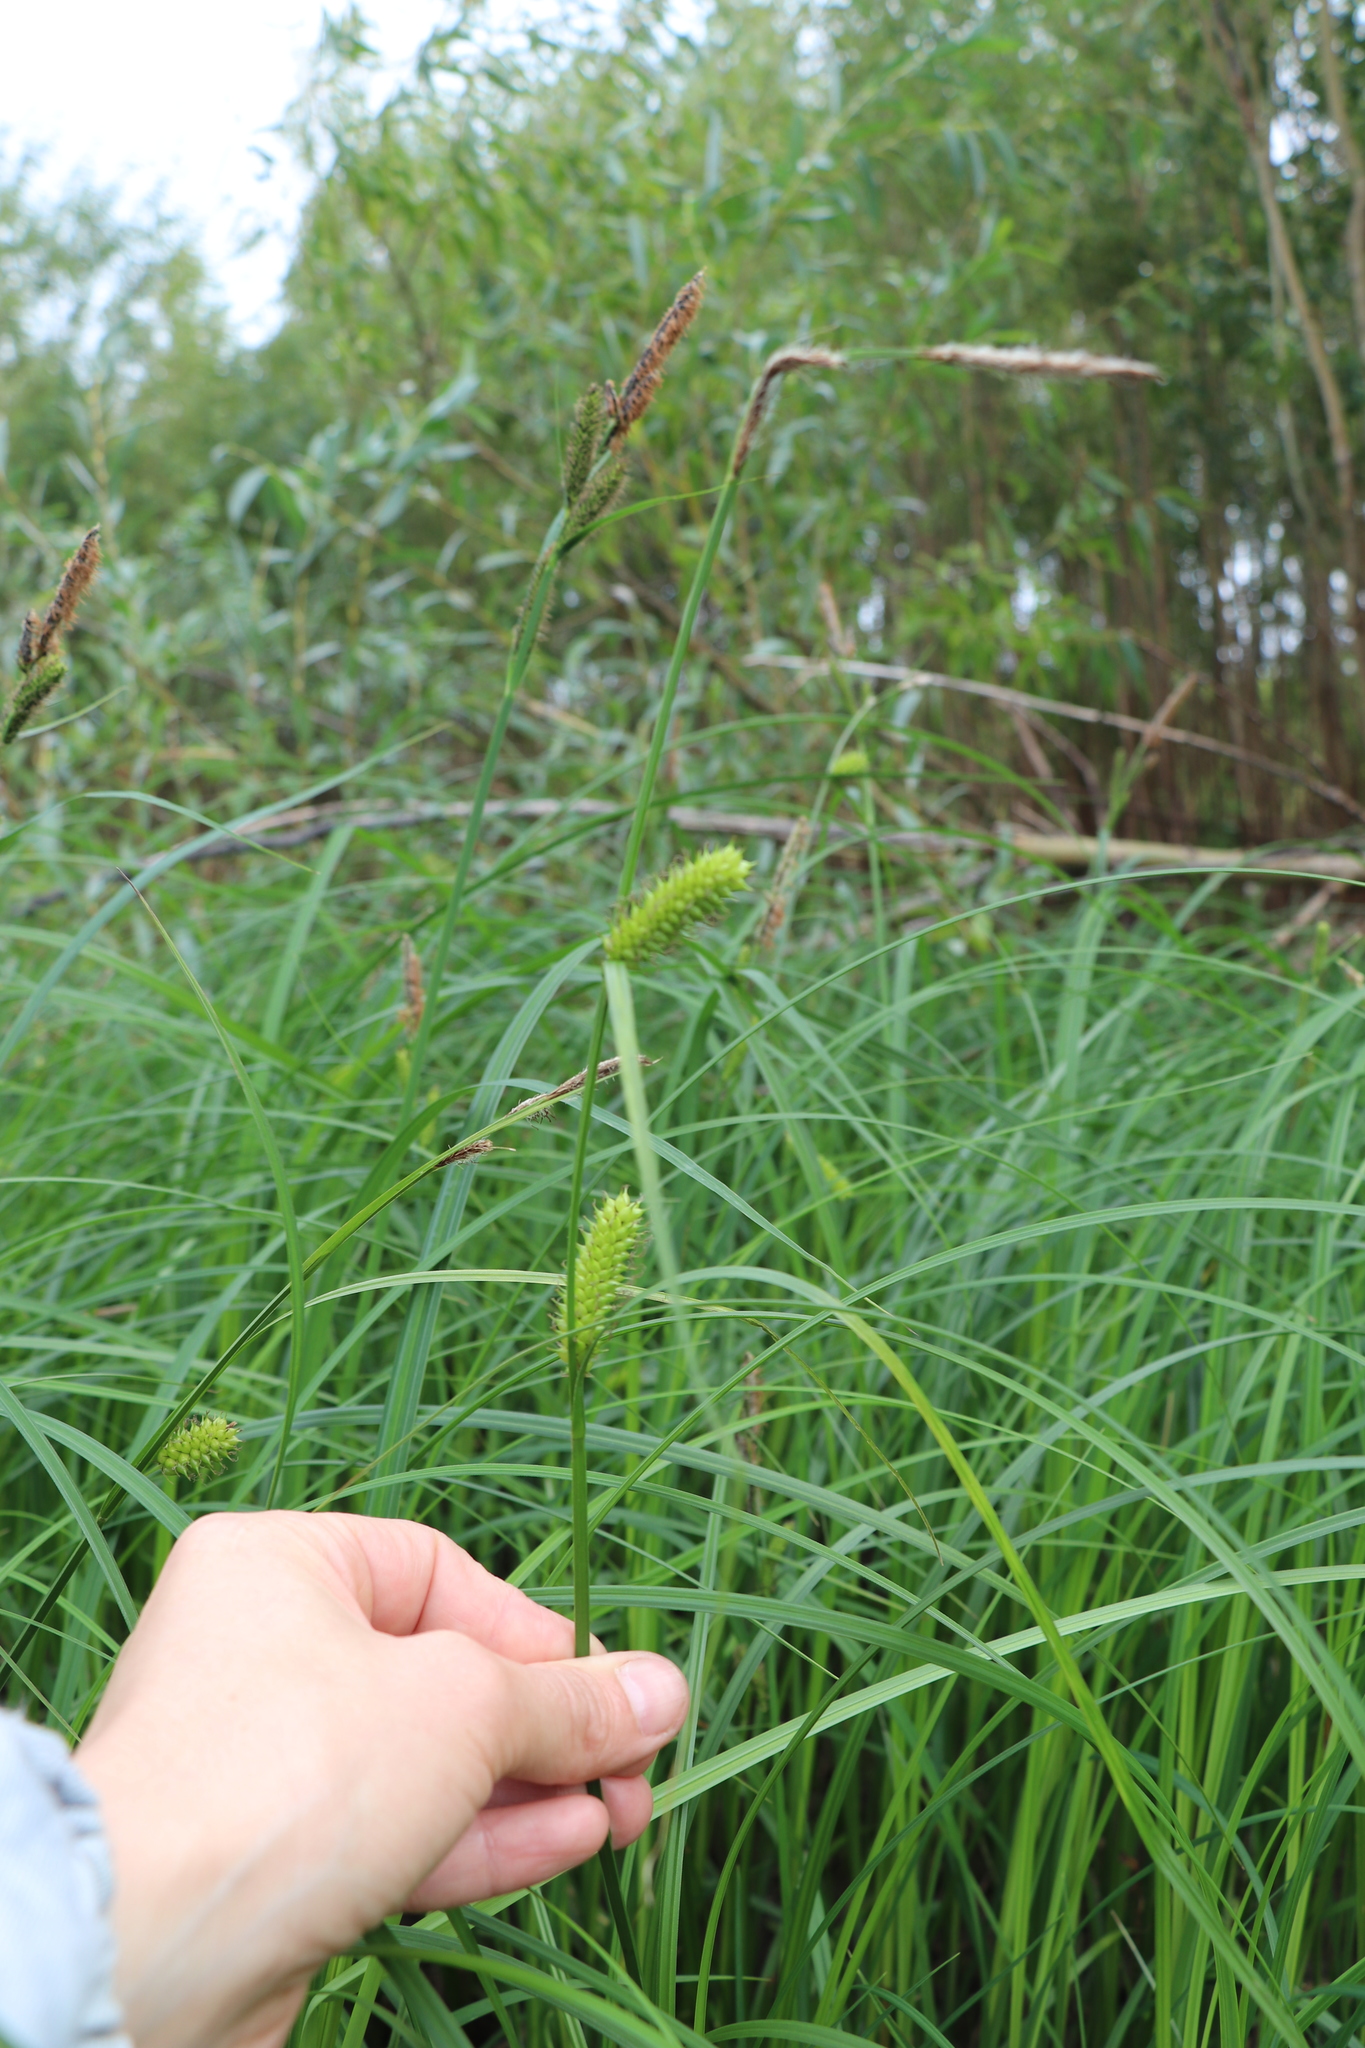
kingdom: Plantae
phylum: Tracheophyta
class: Liliopsida
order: Poales
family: Cyperaceae
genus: Carex
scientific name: Carex vesicaria
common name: Bladder-sedge
